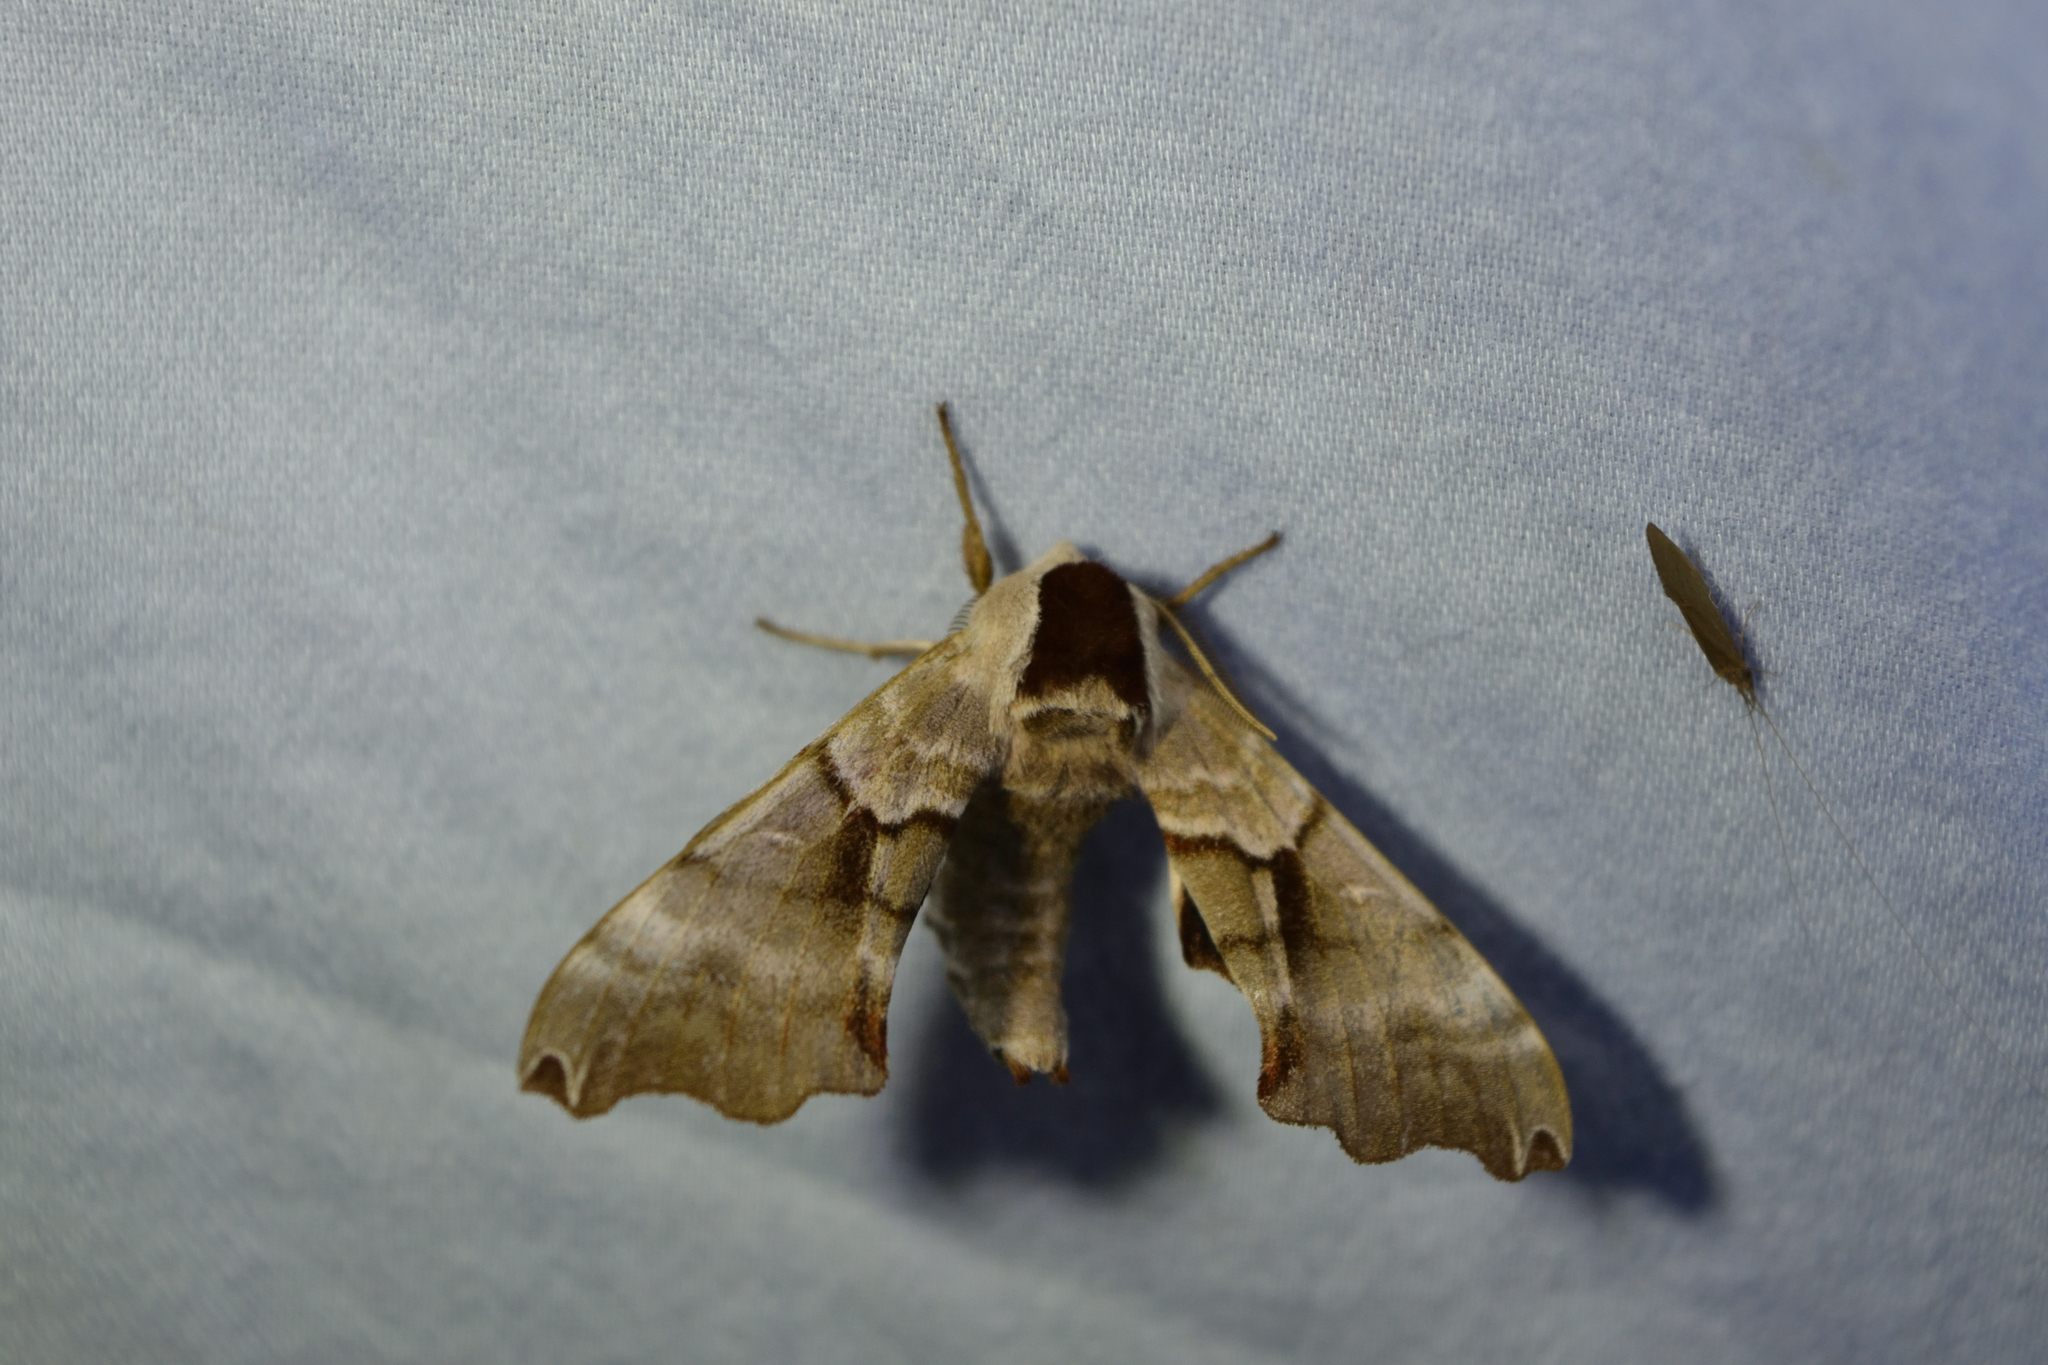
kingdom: Animalia
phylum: Arthropoda
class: Insecta
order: Lepidoptera
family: Sphingidae
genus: Smerinthus
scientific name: Smerinthus jamaicensis
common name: Twin spotted sphinx
